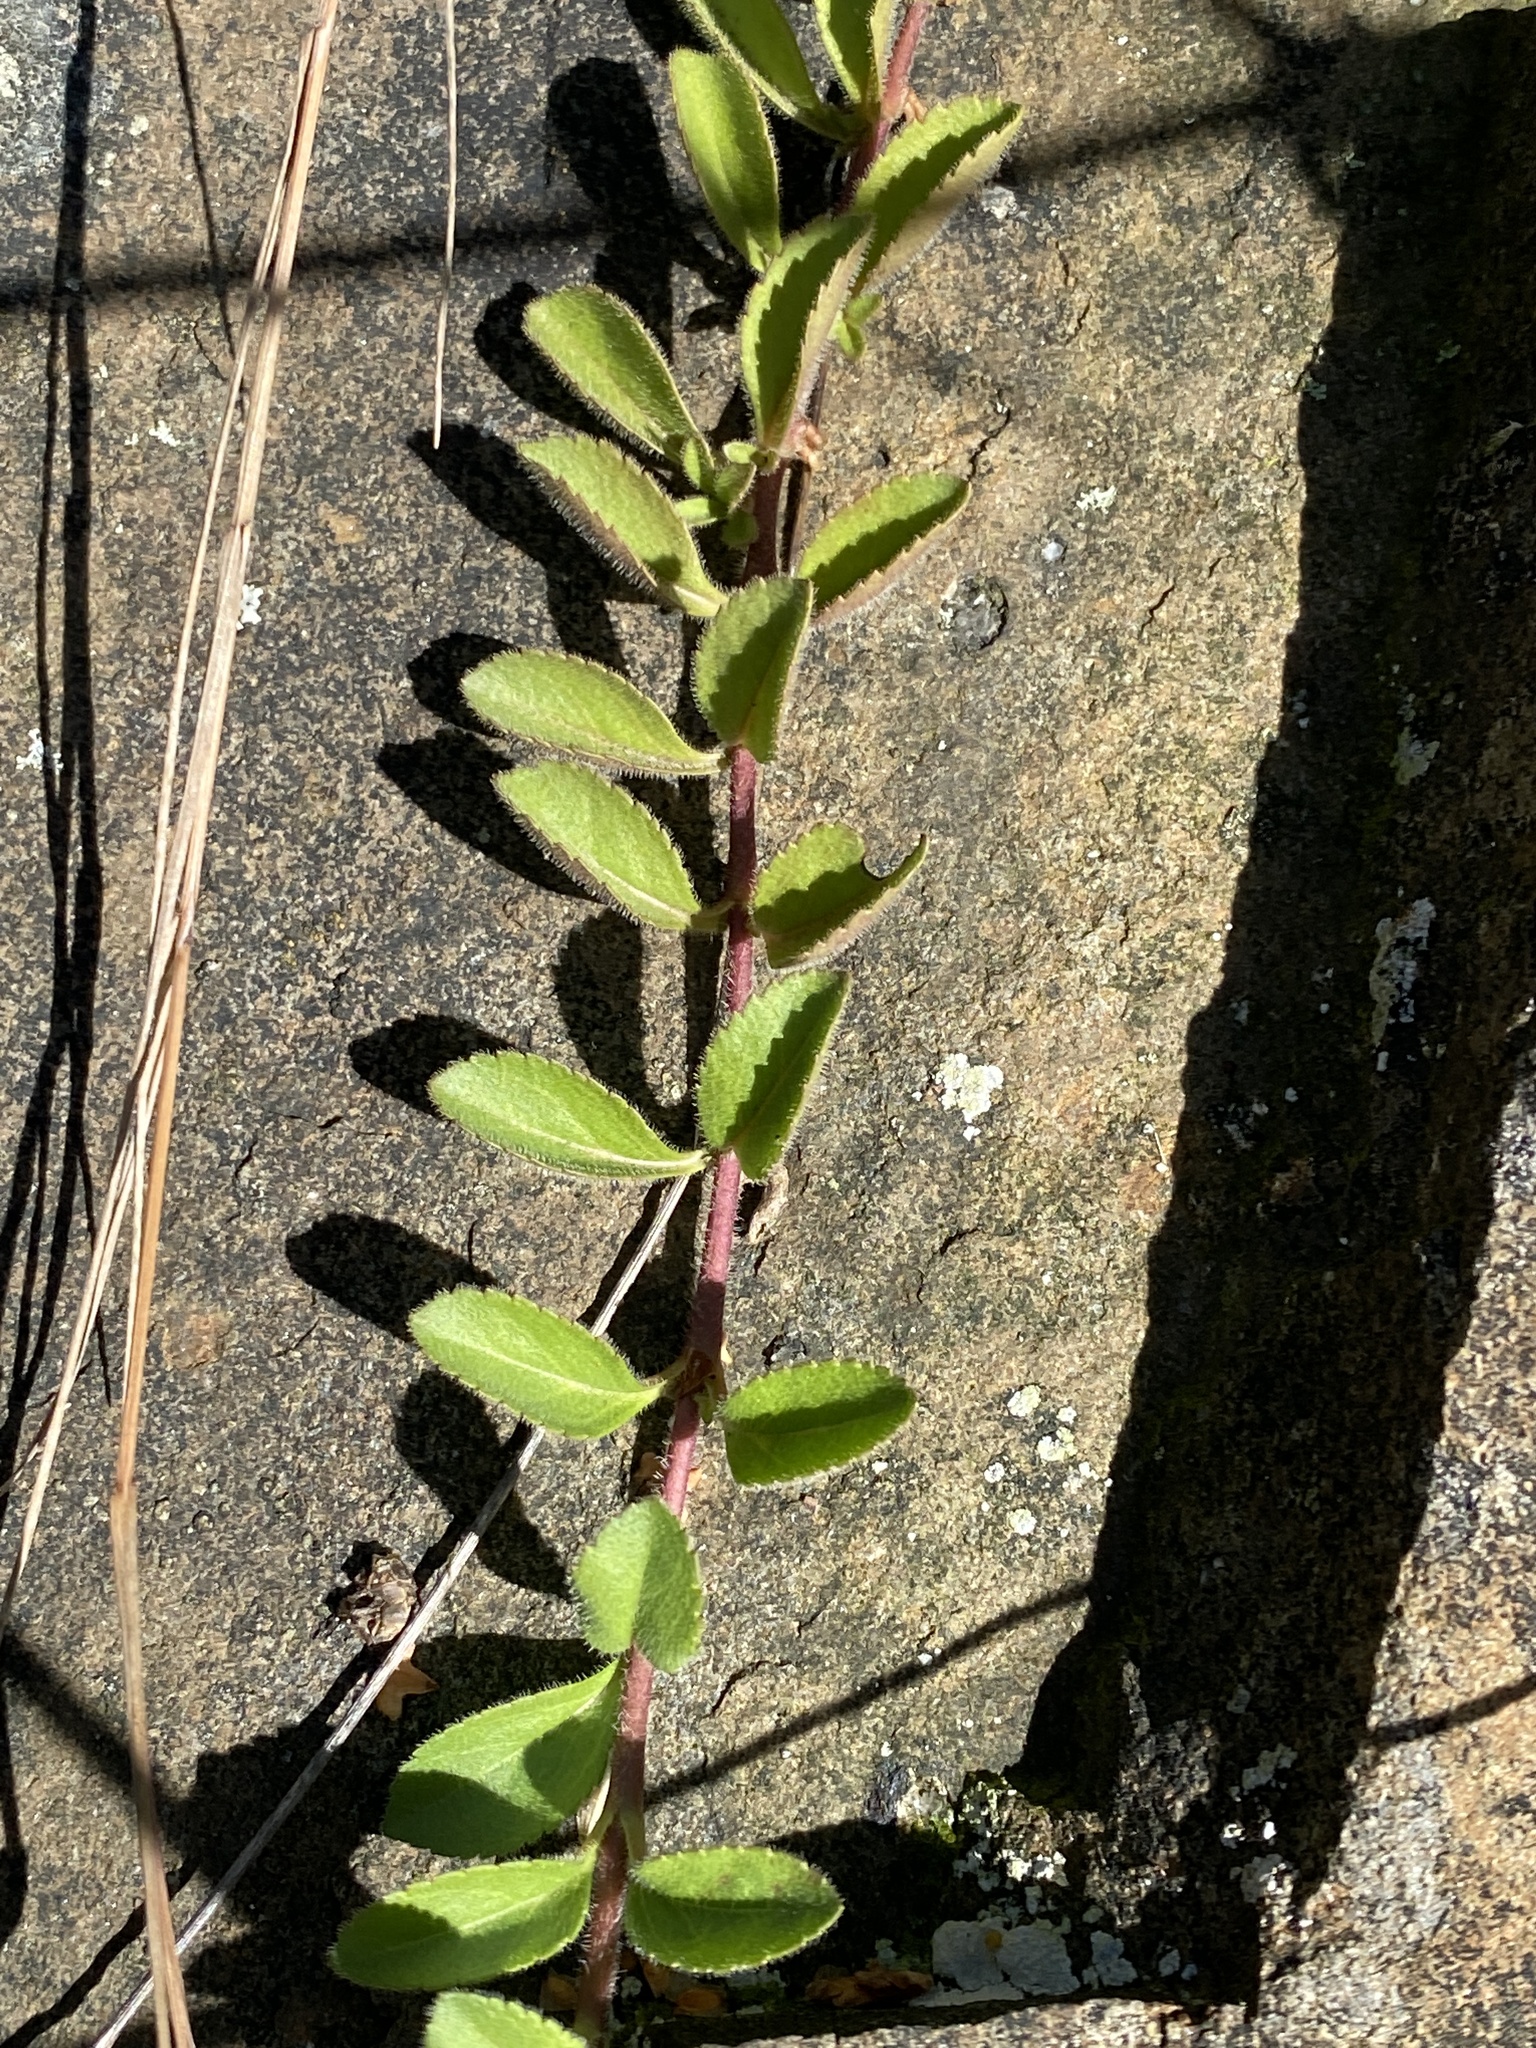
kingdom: Plantae
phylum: Tracheophyta
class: Magnoliopsida
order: Lamiales
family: Plantaginaceae
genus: Veronica
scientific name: Veronica officinalis
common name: Common speedwell
